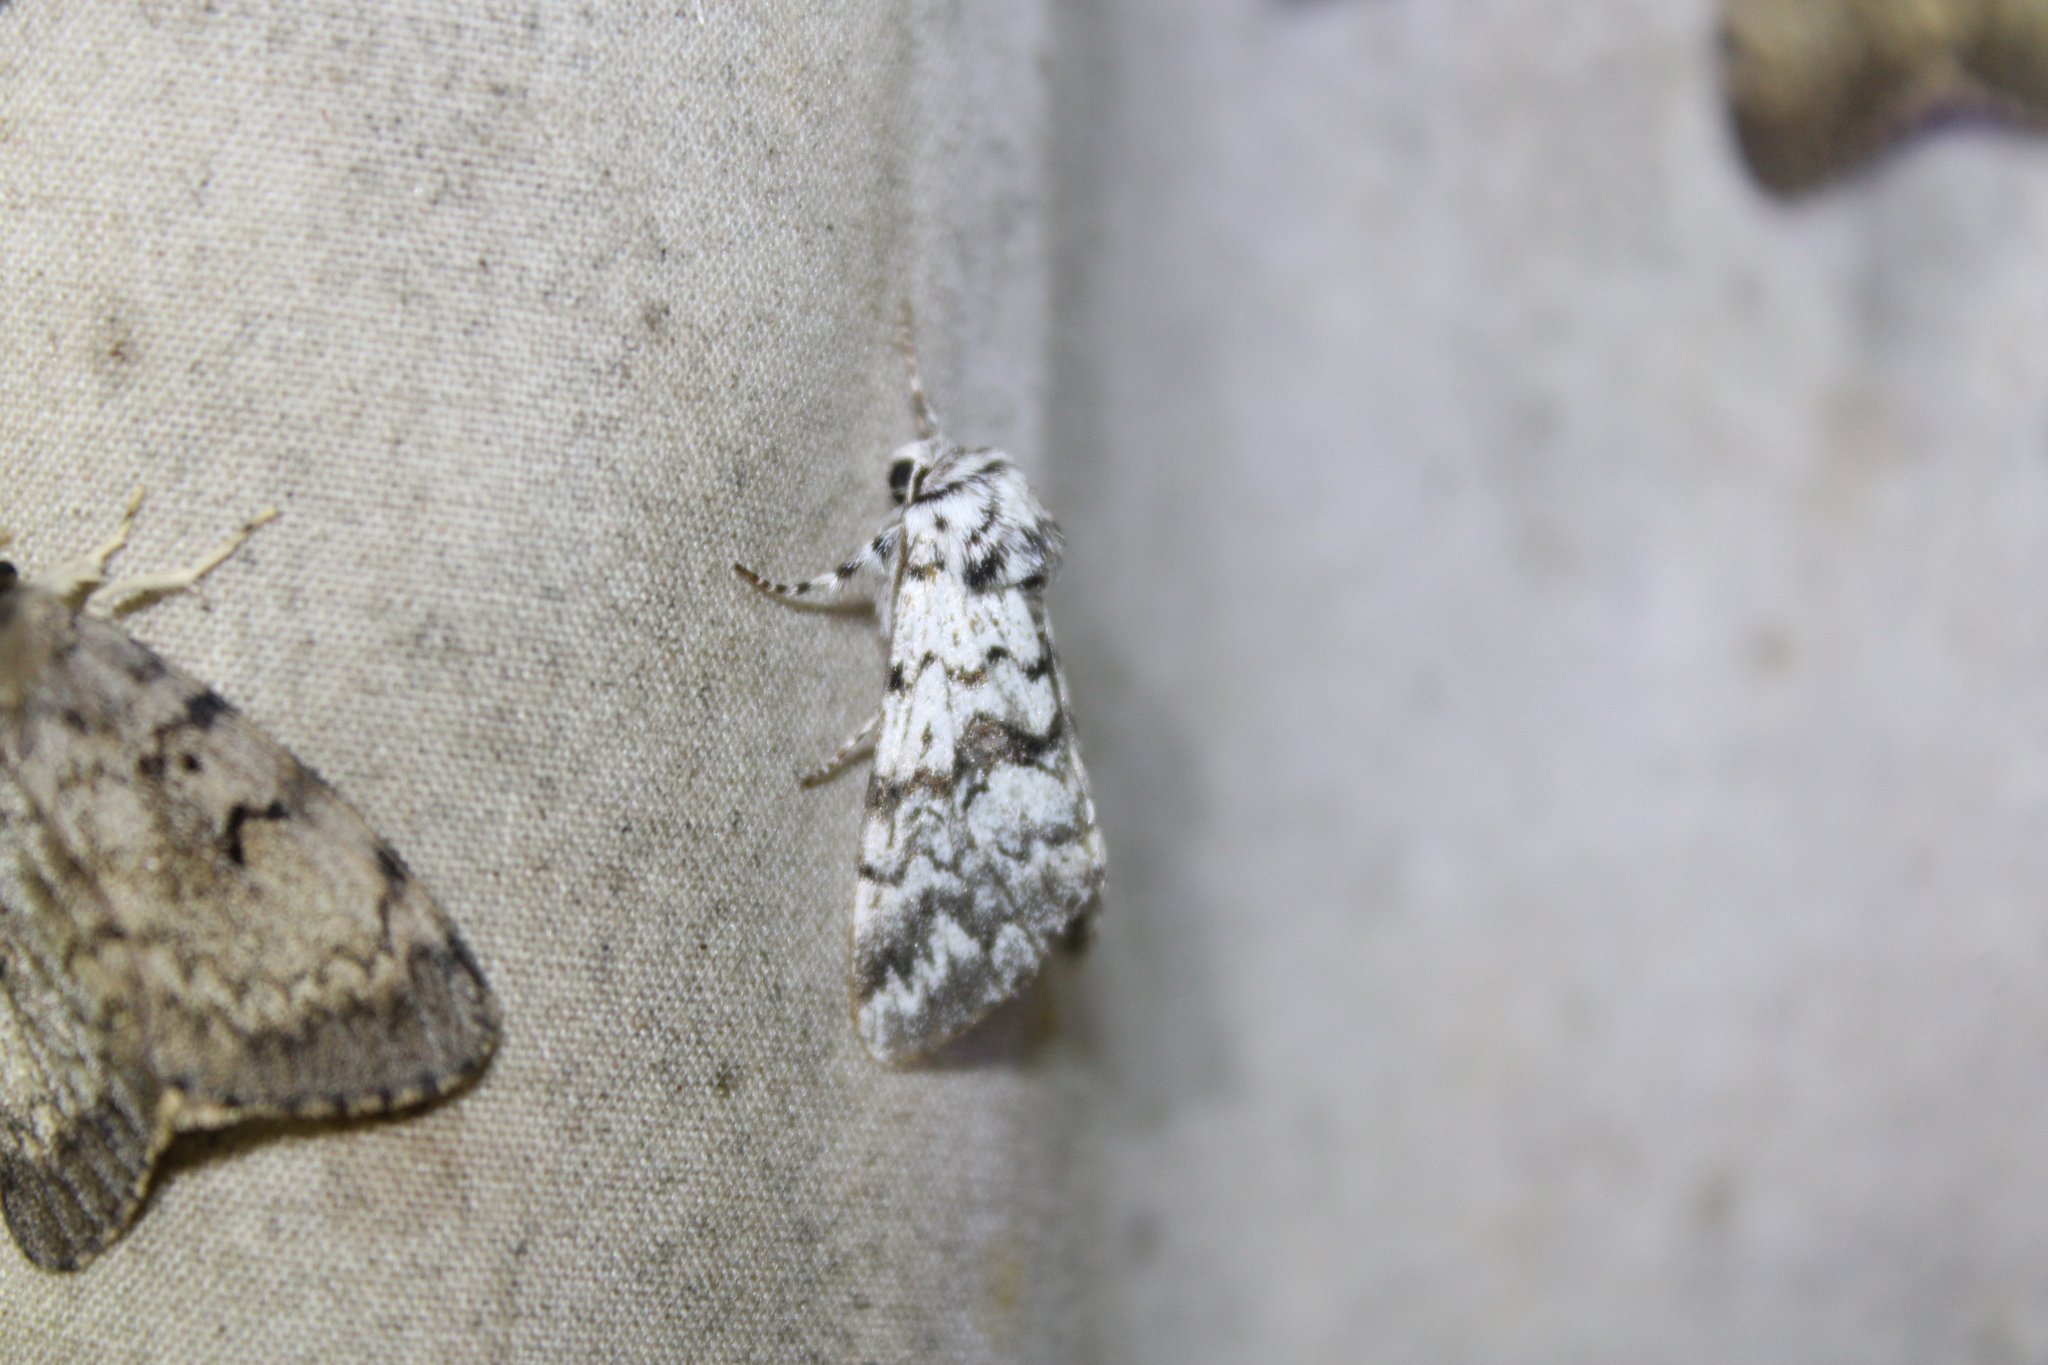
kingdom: Animalia
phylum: Arthropoda
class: Insecta
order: Lepidoptera
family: Noctuidae
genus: Panthea
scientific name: Panthea acronyctoides
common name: Black zigzag moth
